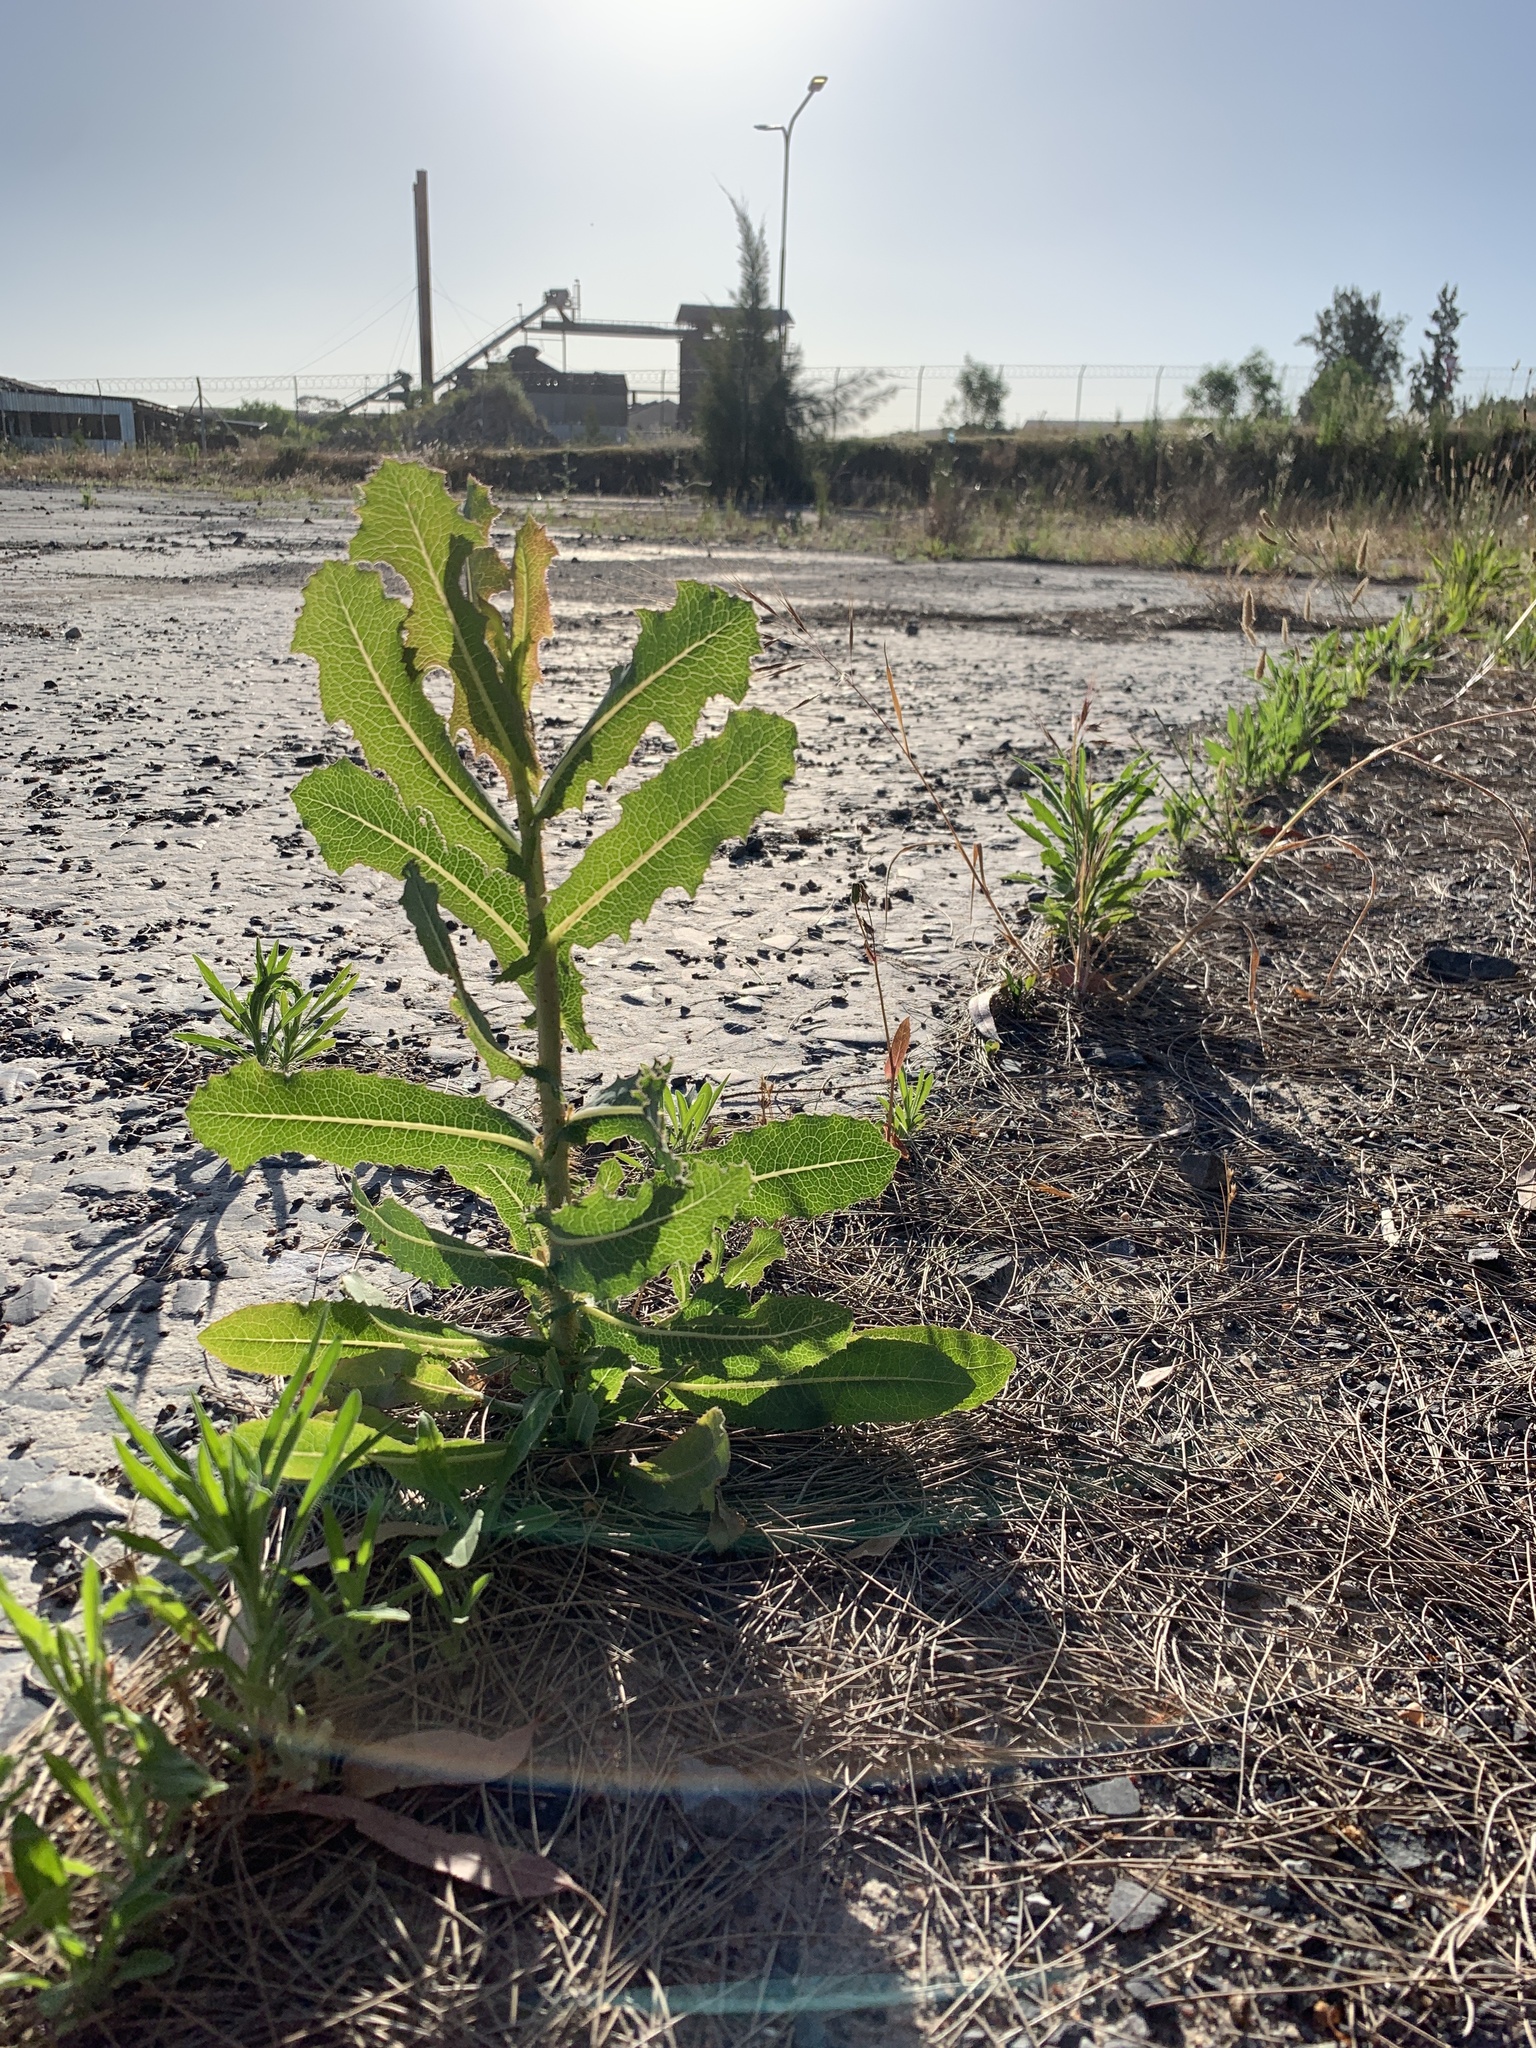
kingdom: Plantae
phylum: Tracheophyta
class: Magnoliopsida
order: Asterales
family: Asteraceae
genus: Lactuca
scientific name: Lactuca serriola
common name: Prickly lettuce
